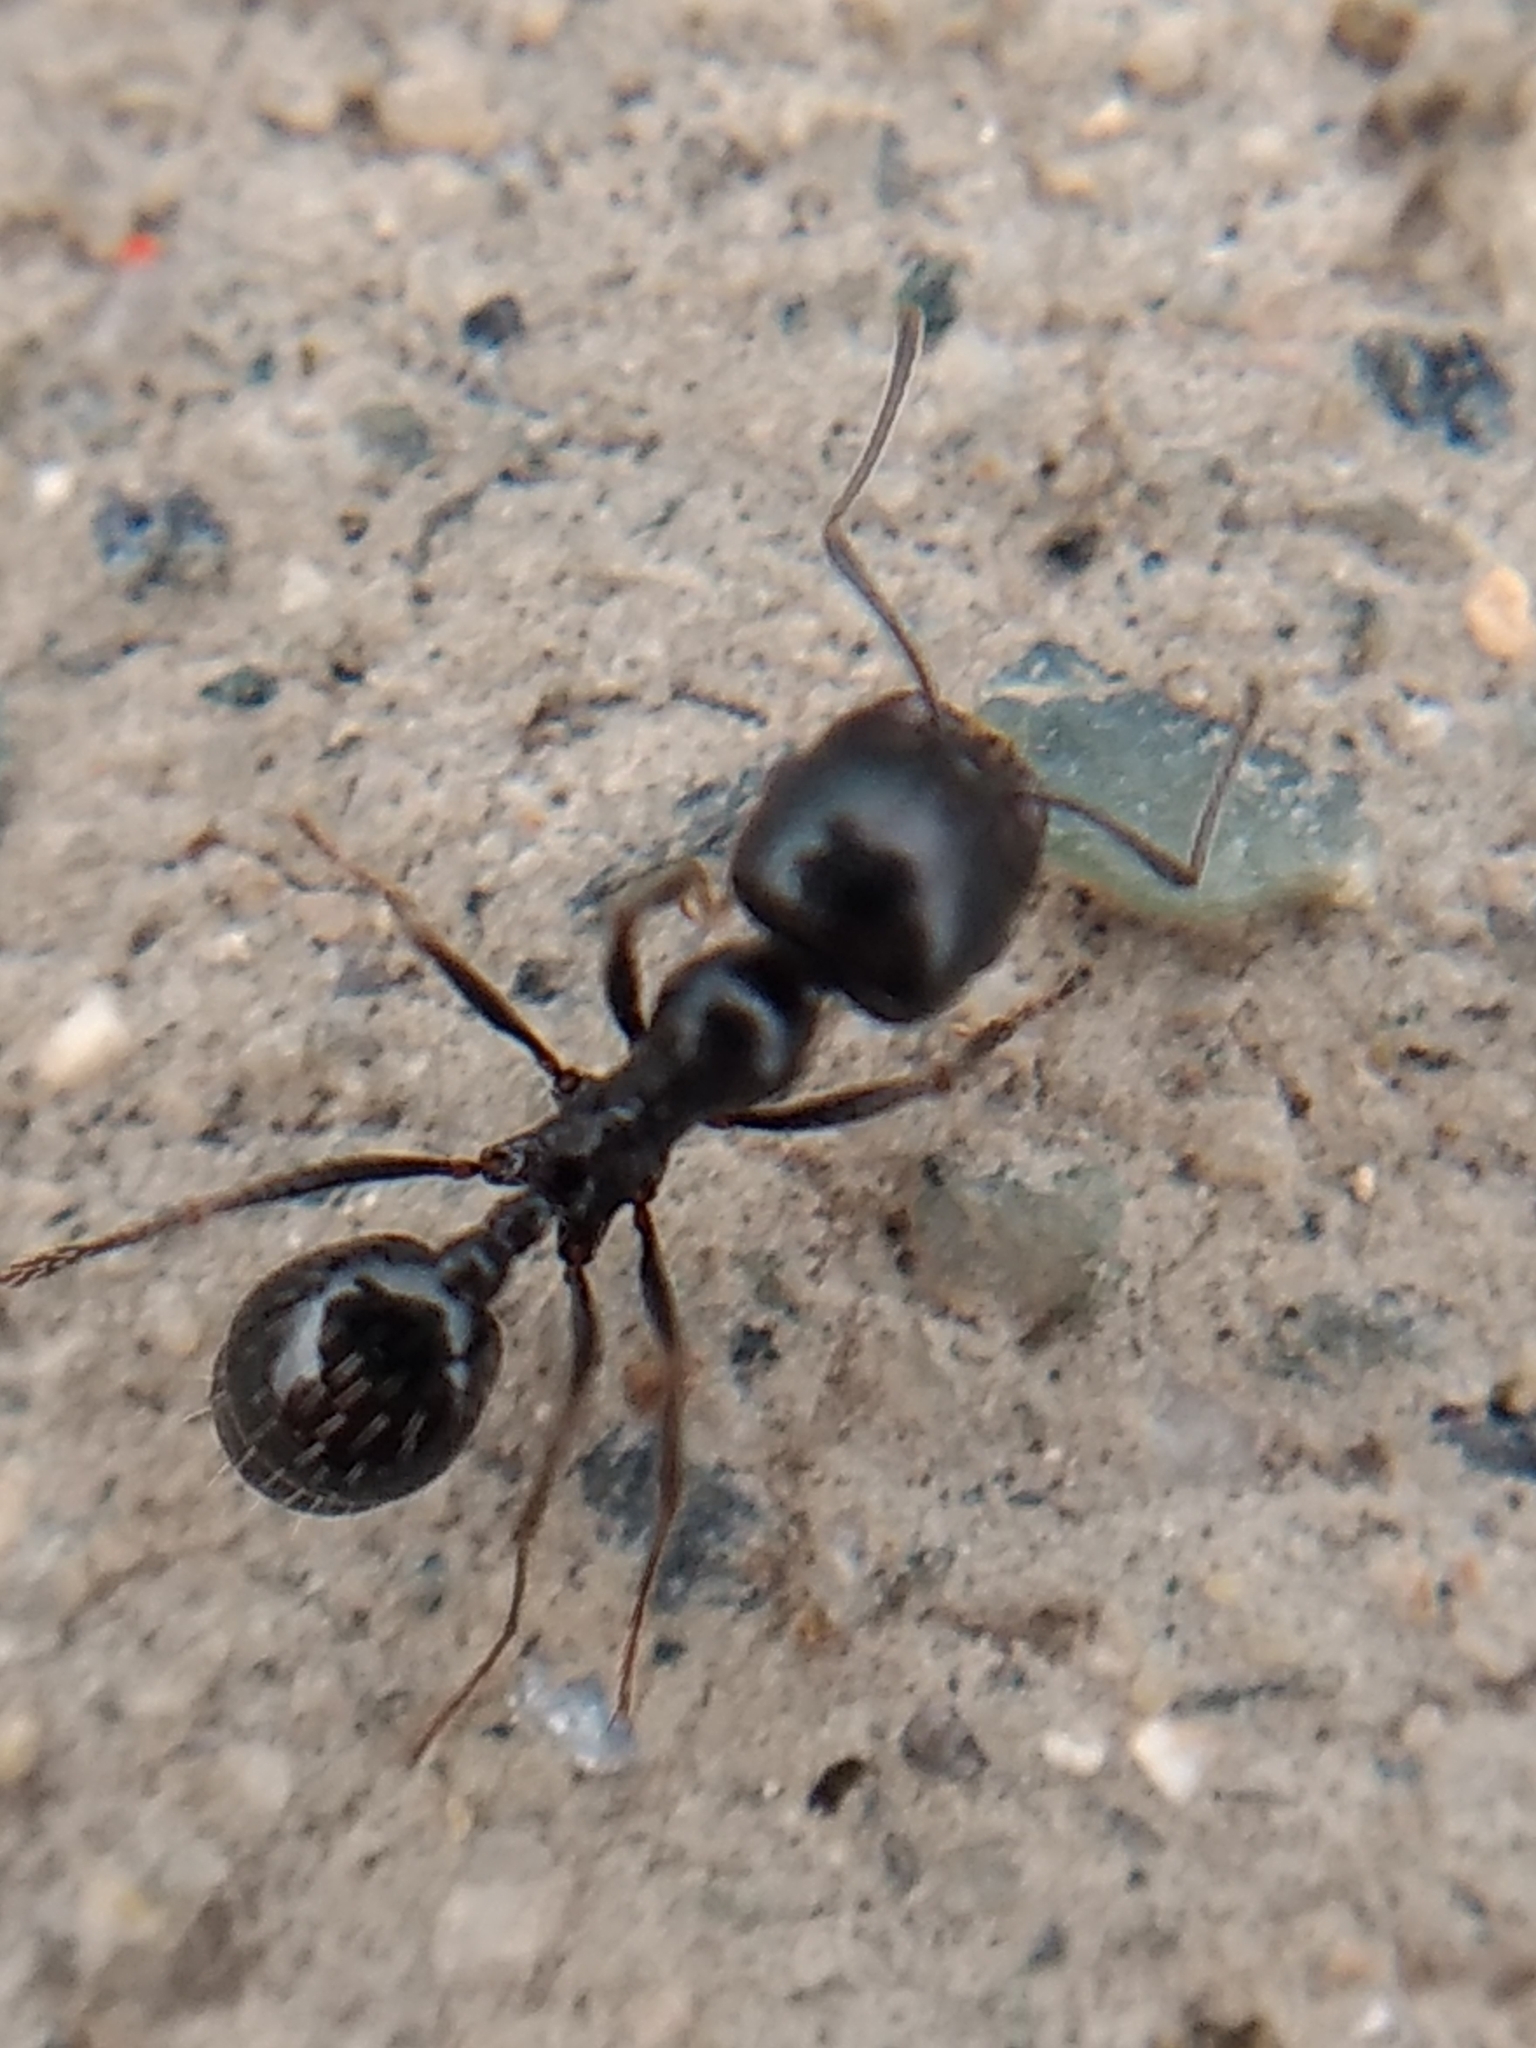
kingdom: Animalia
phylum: Arthropoda
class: Insecta
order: Hymenoptera
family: Formicidae
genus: Messor
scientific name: Messor pergandei
